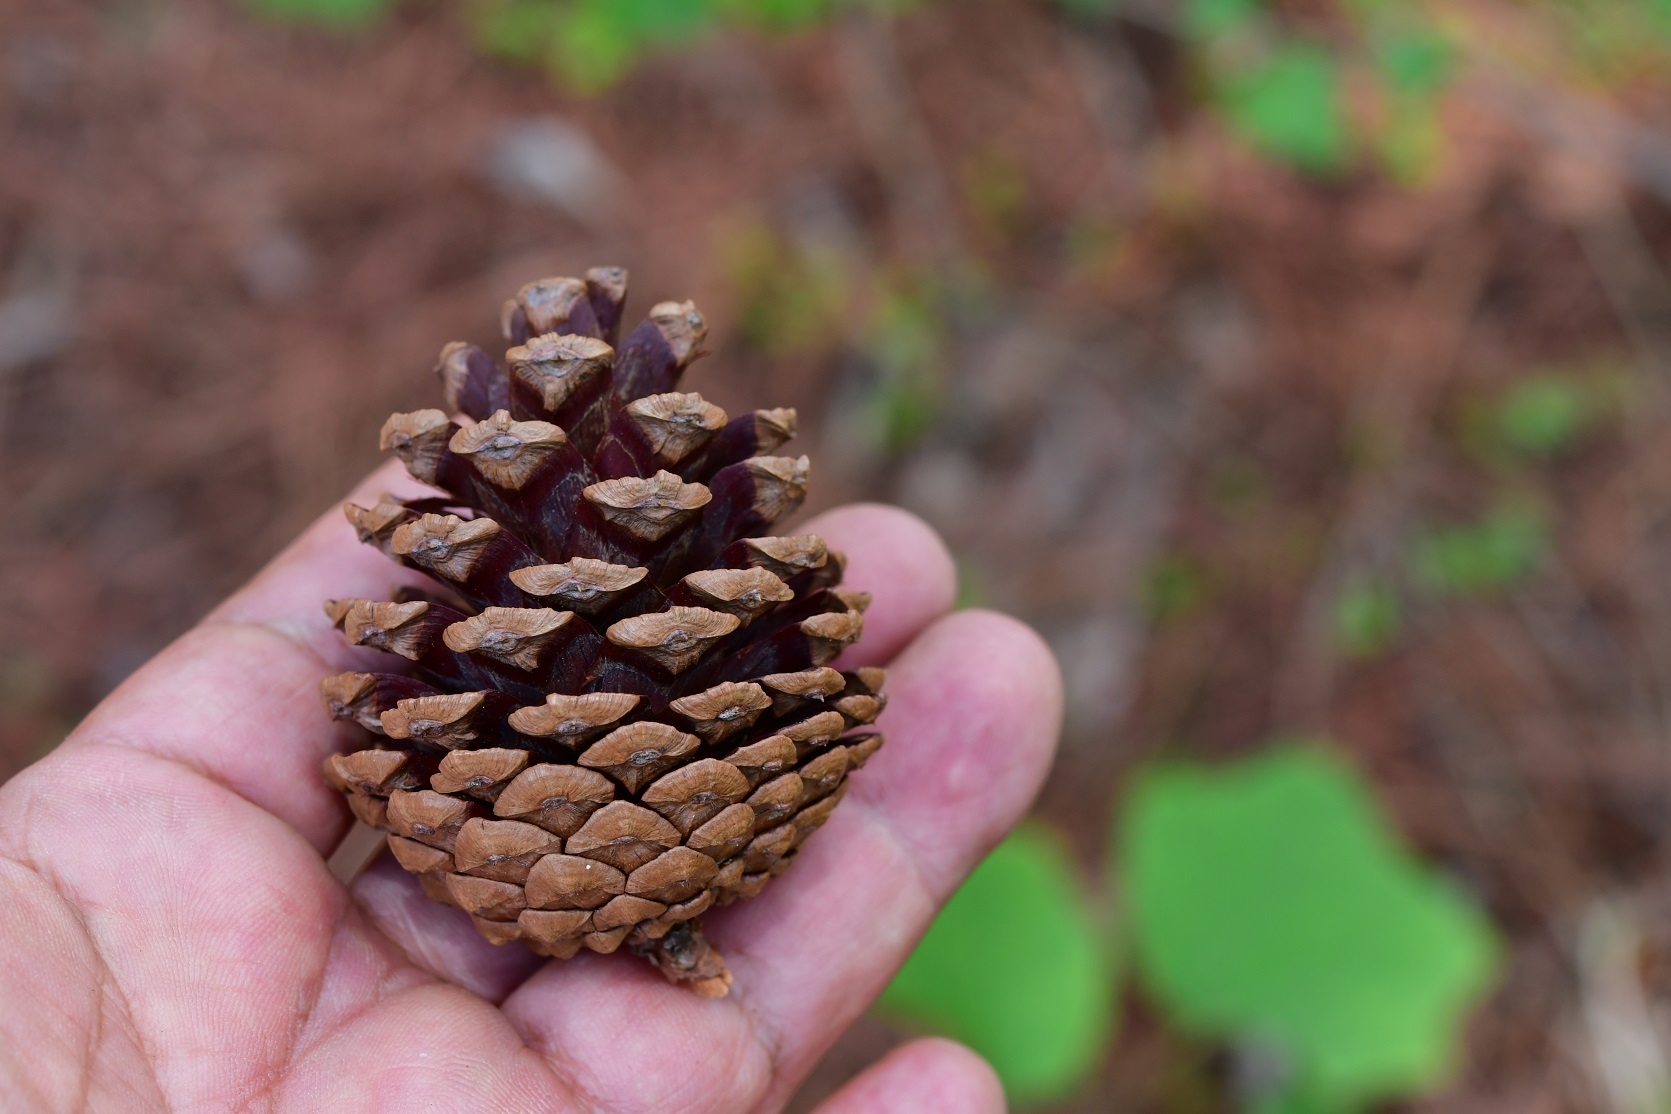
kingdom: Plantae
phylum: Tracheophyta
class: Pinopsida
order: Pinales
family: Pinaceae
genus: Pinus
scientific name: Pinus tecunumanii
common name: Schwerdtfeger's pine
